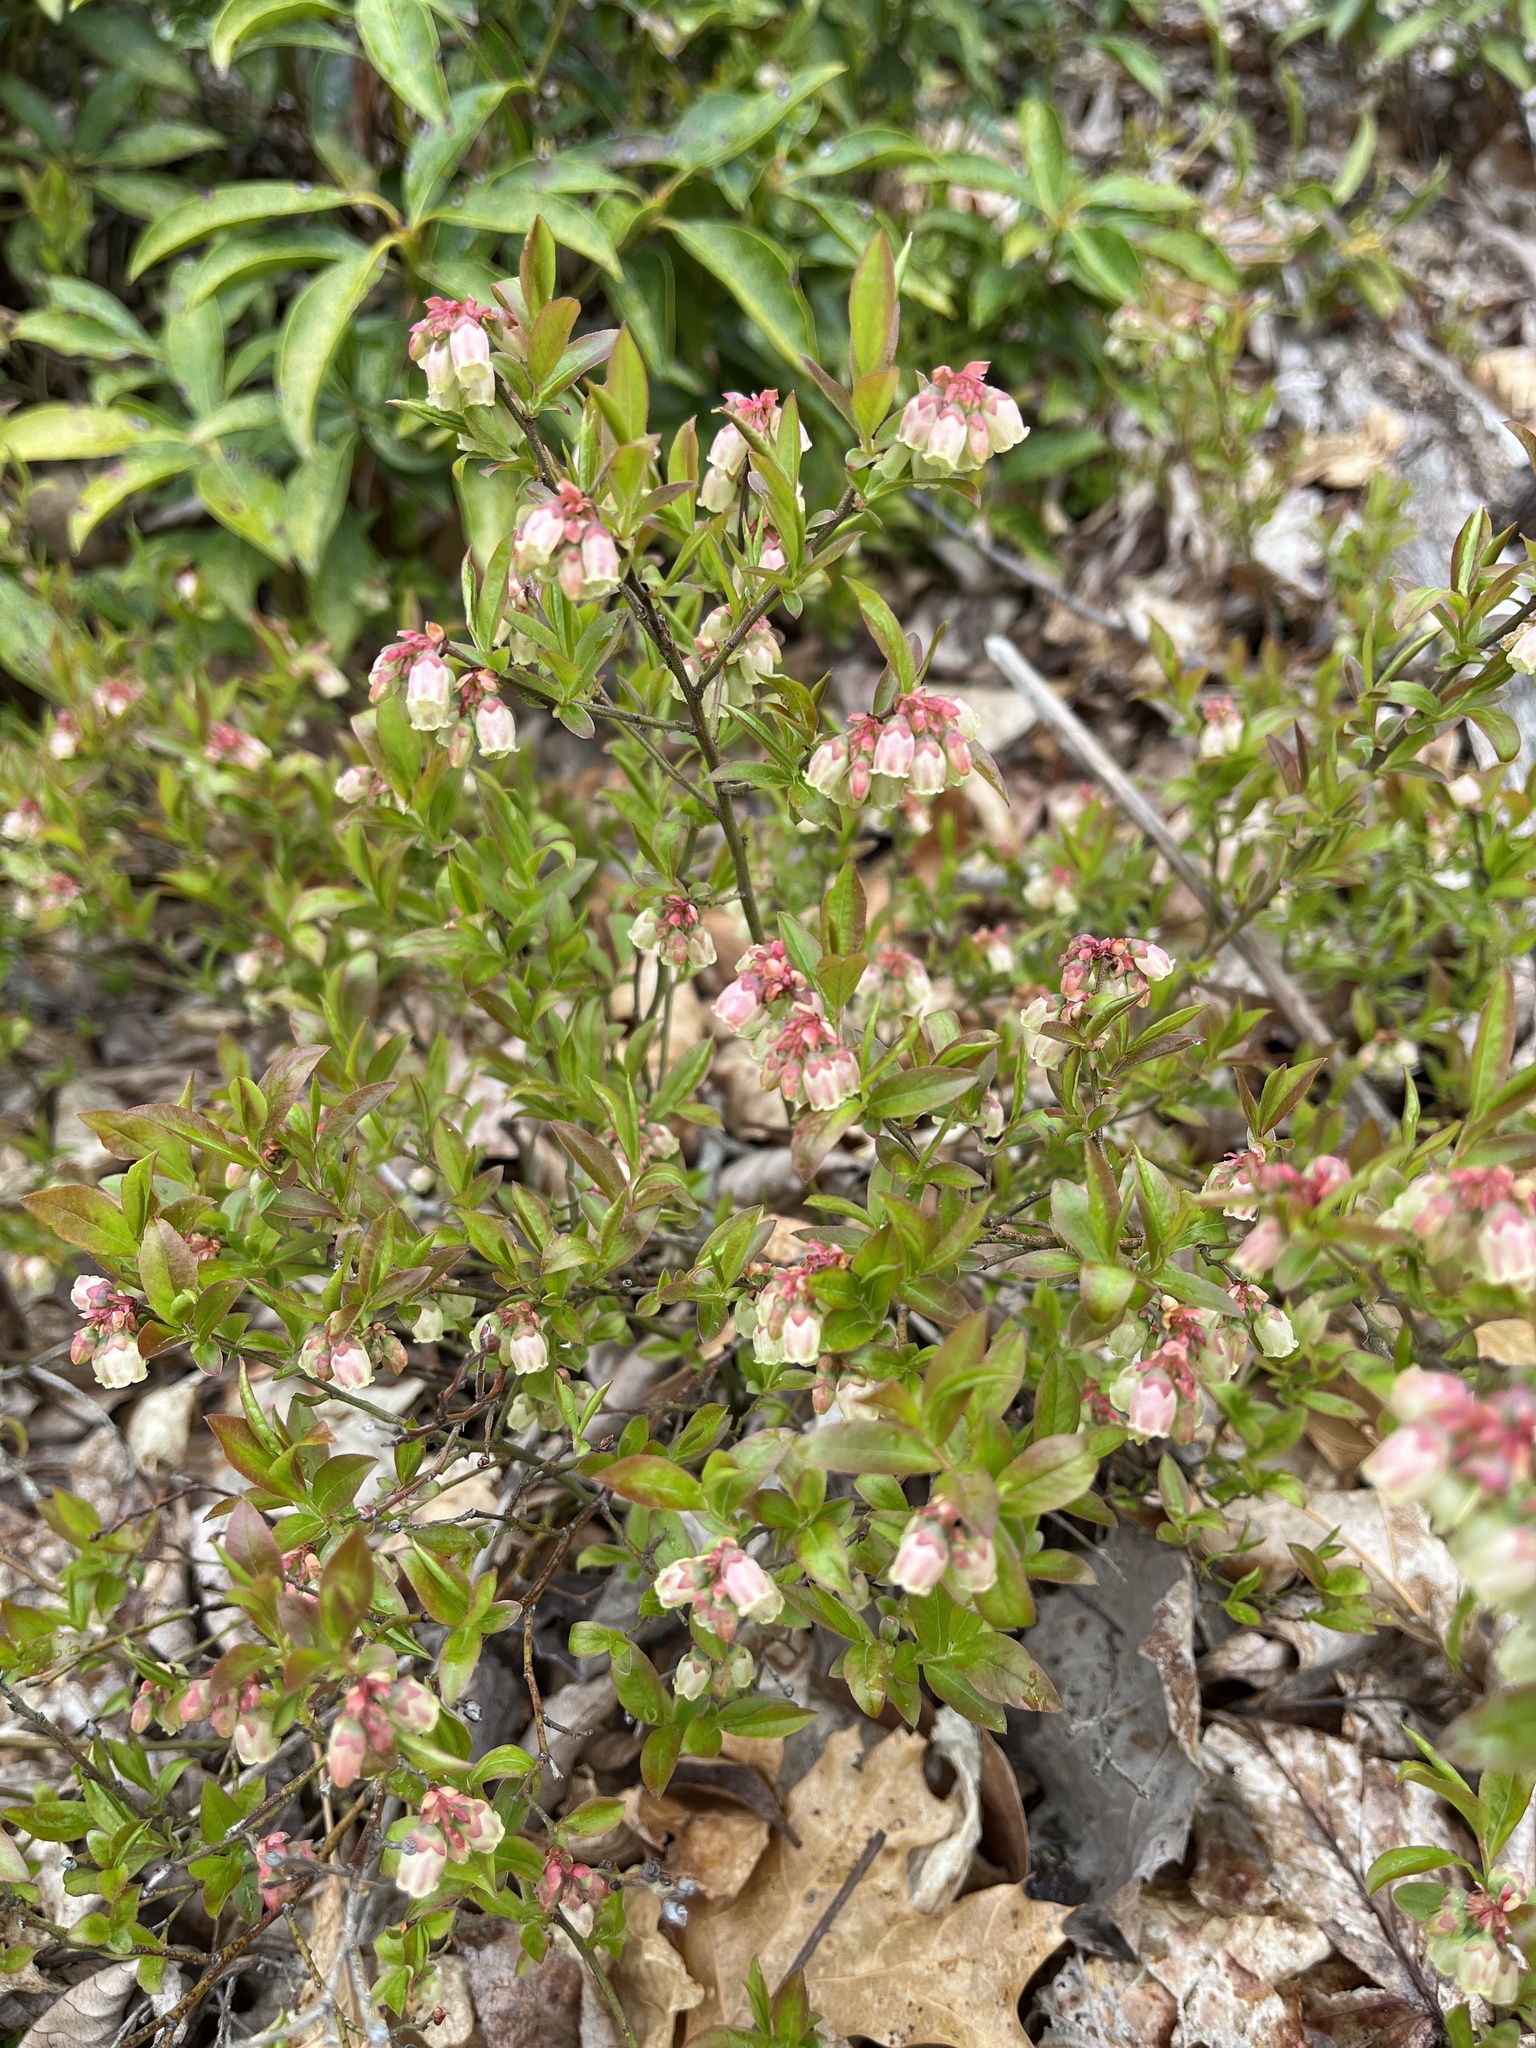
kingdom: Plantae
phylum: Tracheophyta
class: Magnoliopsida
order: Ericales
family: Ericaceae
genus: Vaccinium
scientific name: Vaccinium angustifolium
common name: Early lowbush blueberry
